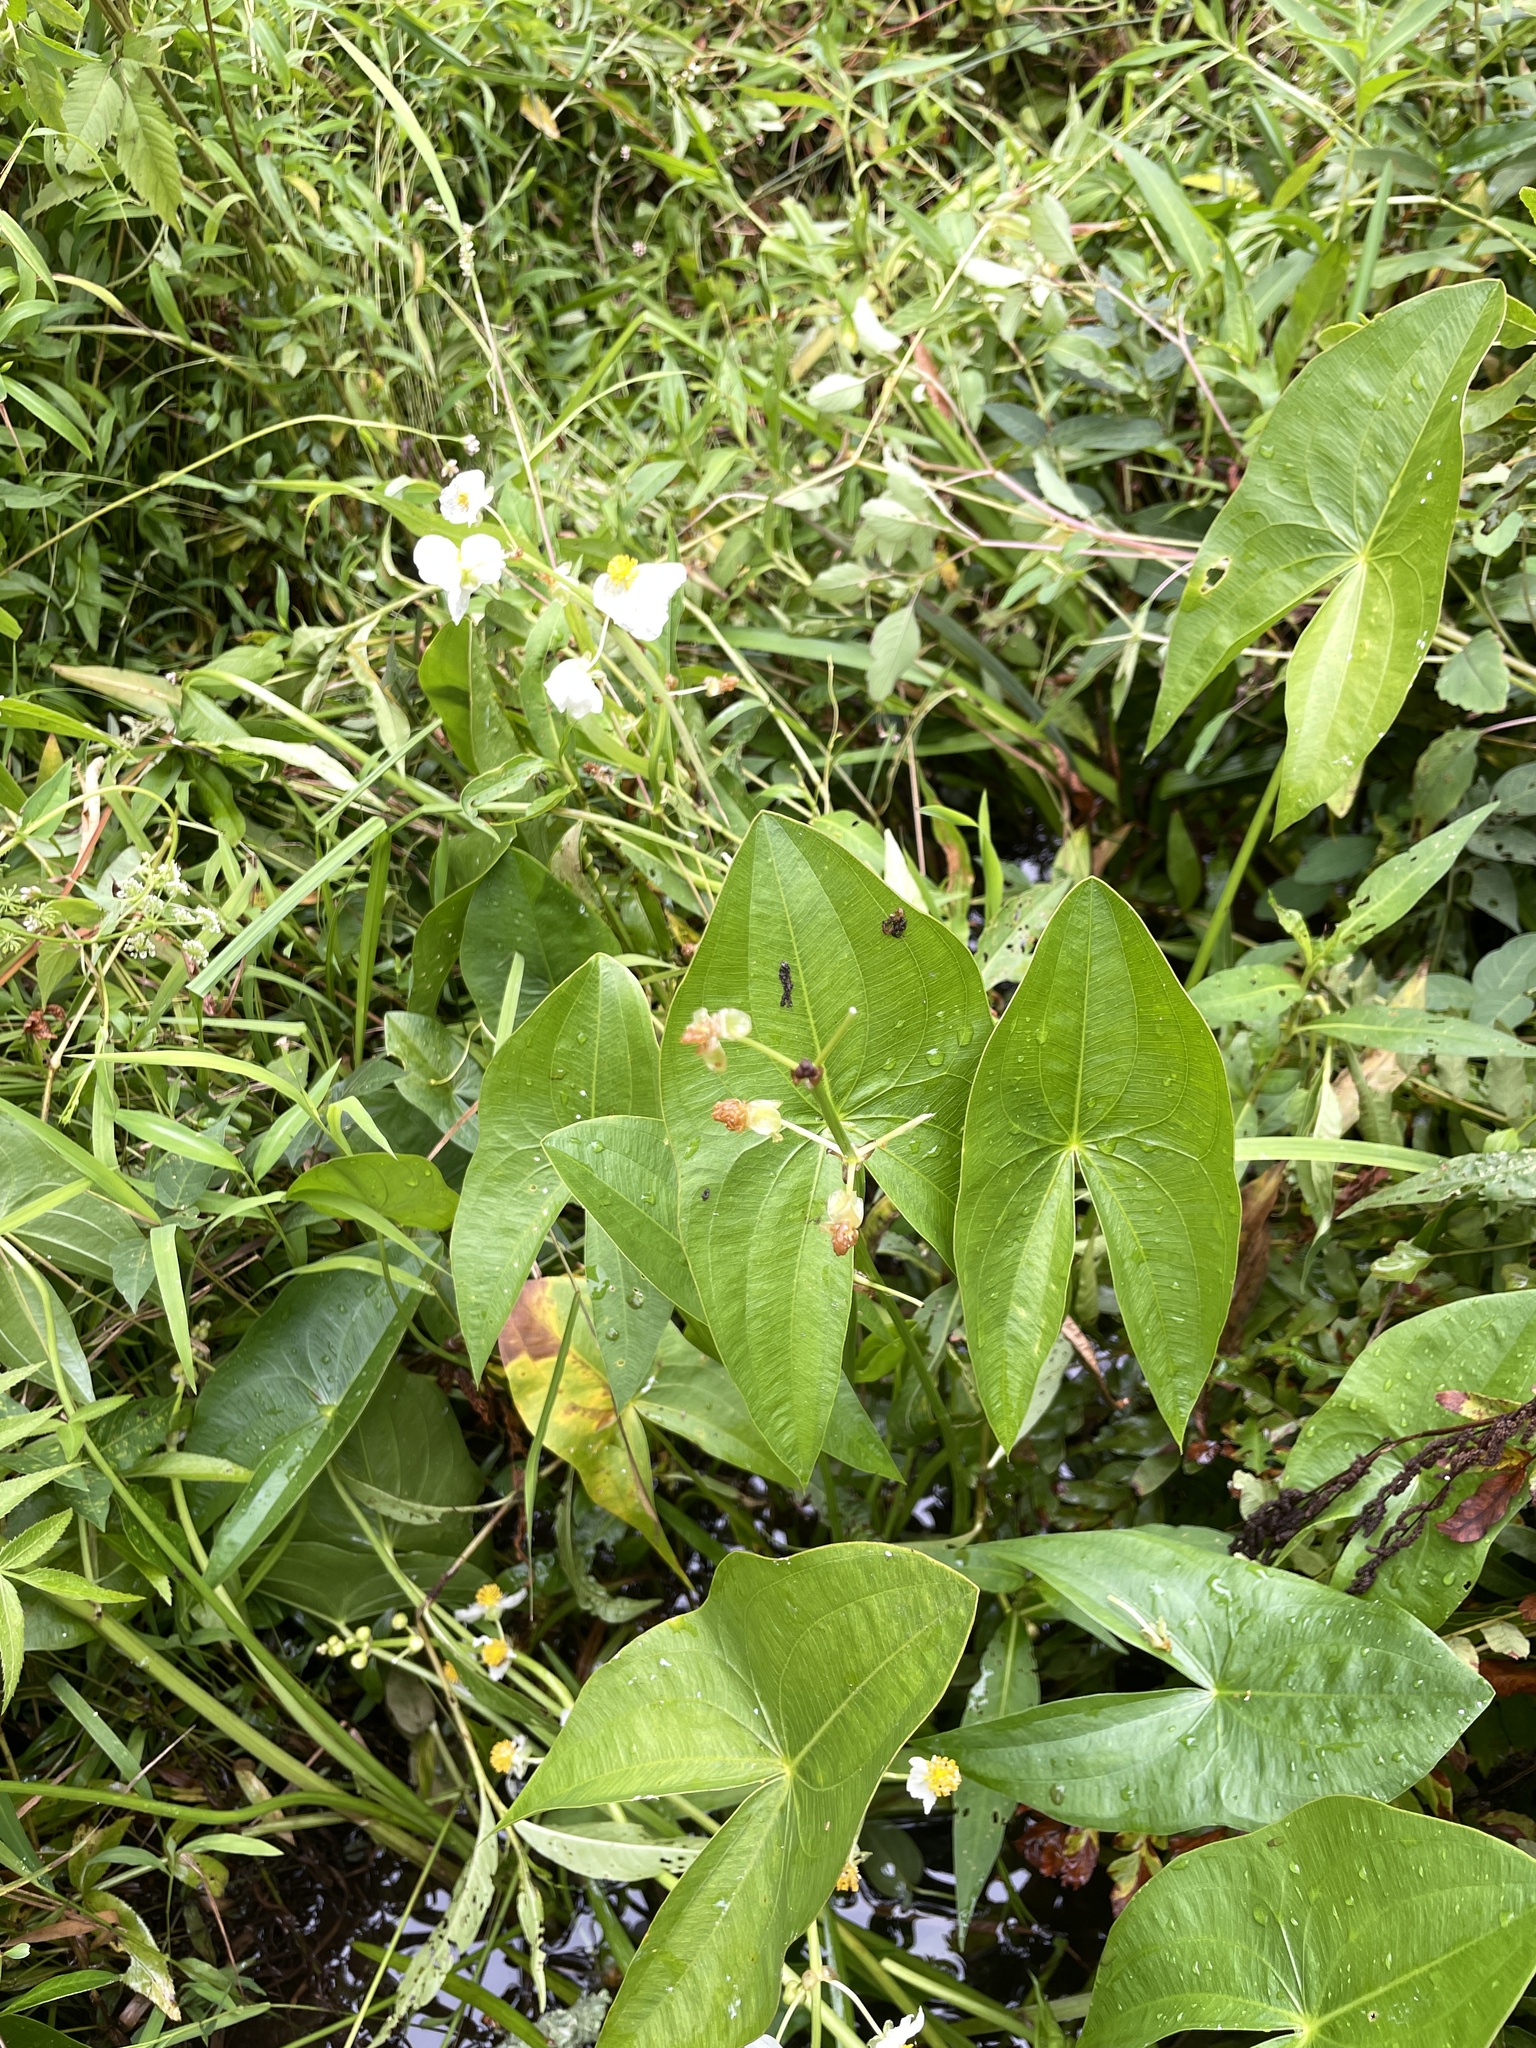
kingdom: Plantae
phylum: Tracheophyta
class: Liliopsida
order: Alismatales
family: Alismataceae
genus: Sagittaria
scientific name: Sagittaria latifolia
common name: Duck-potato
